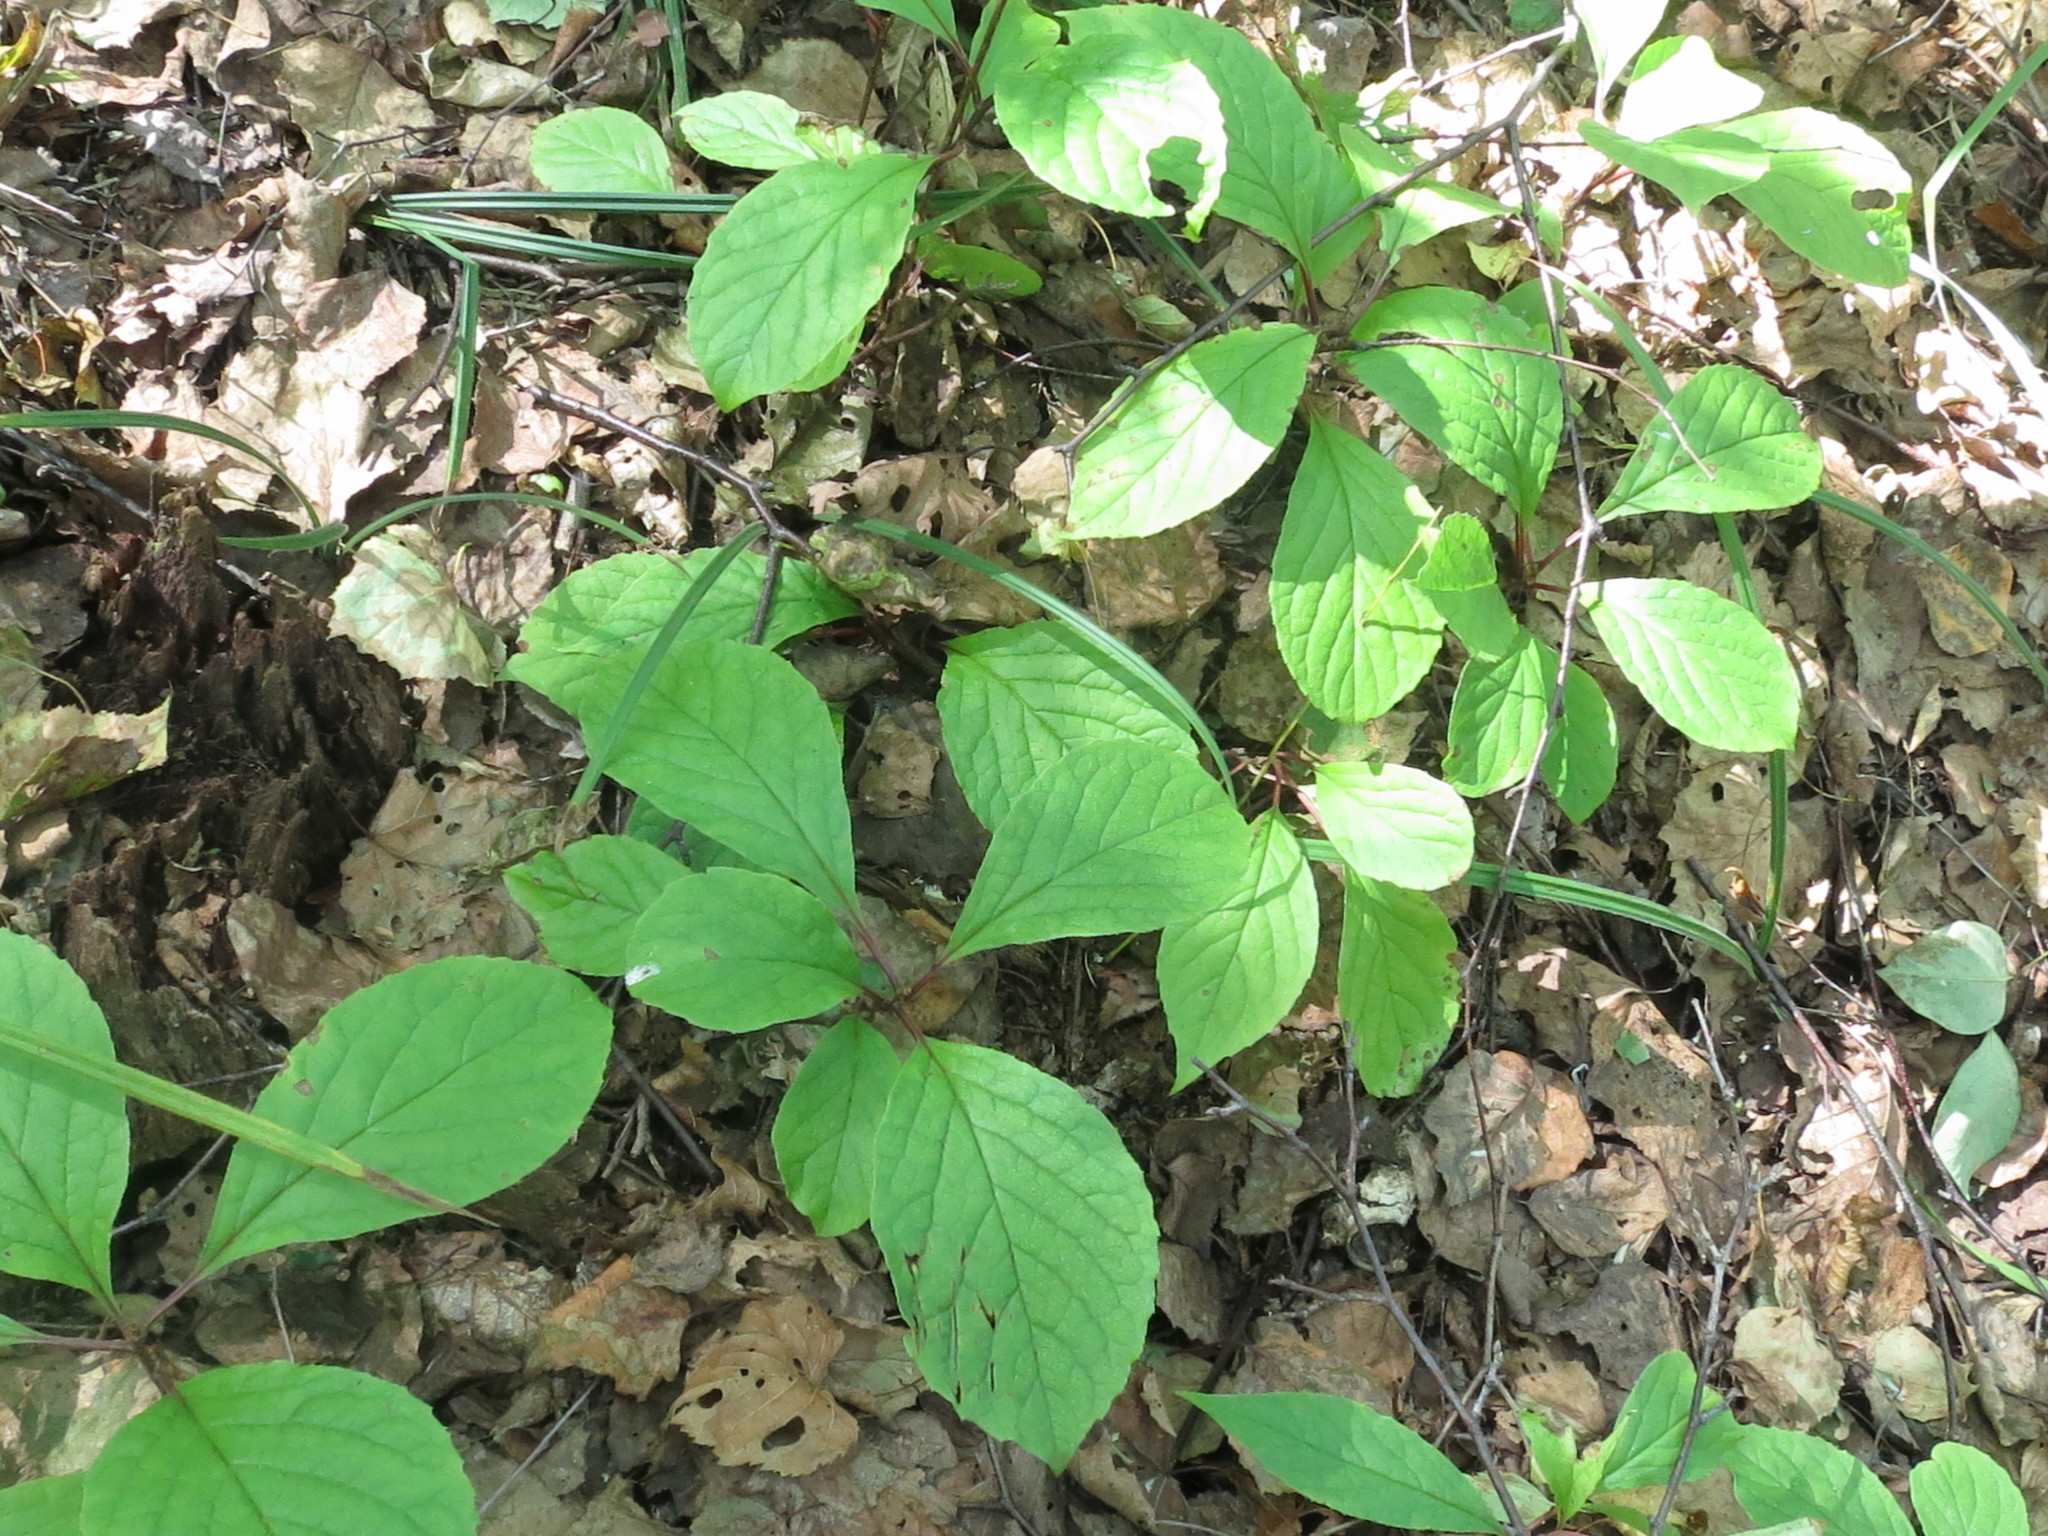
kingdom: Plantae
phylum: Tracheophyta
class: Magnoliopsida
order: Austrobaileyales
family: Schisandraceae
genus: Schisandra
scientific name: Schisandra chinensis
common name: Magnolia-vine
